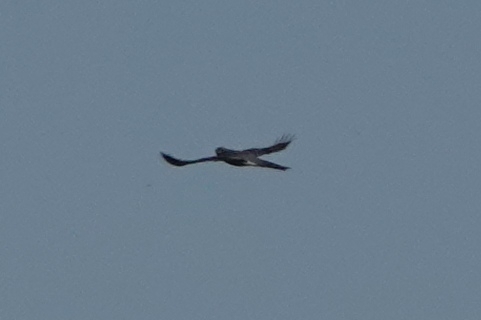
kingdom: Animalia
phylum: Chordata
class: Aves
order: Accipitriformes
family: Accipitridae
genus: Accipiter
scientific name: Accipiter nisus
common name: Eurasian sparrowhawk
